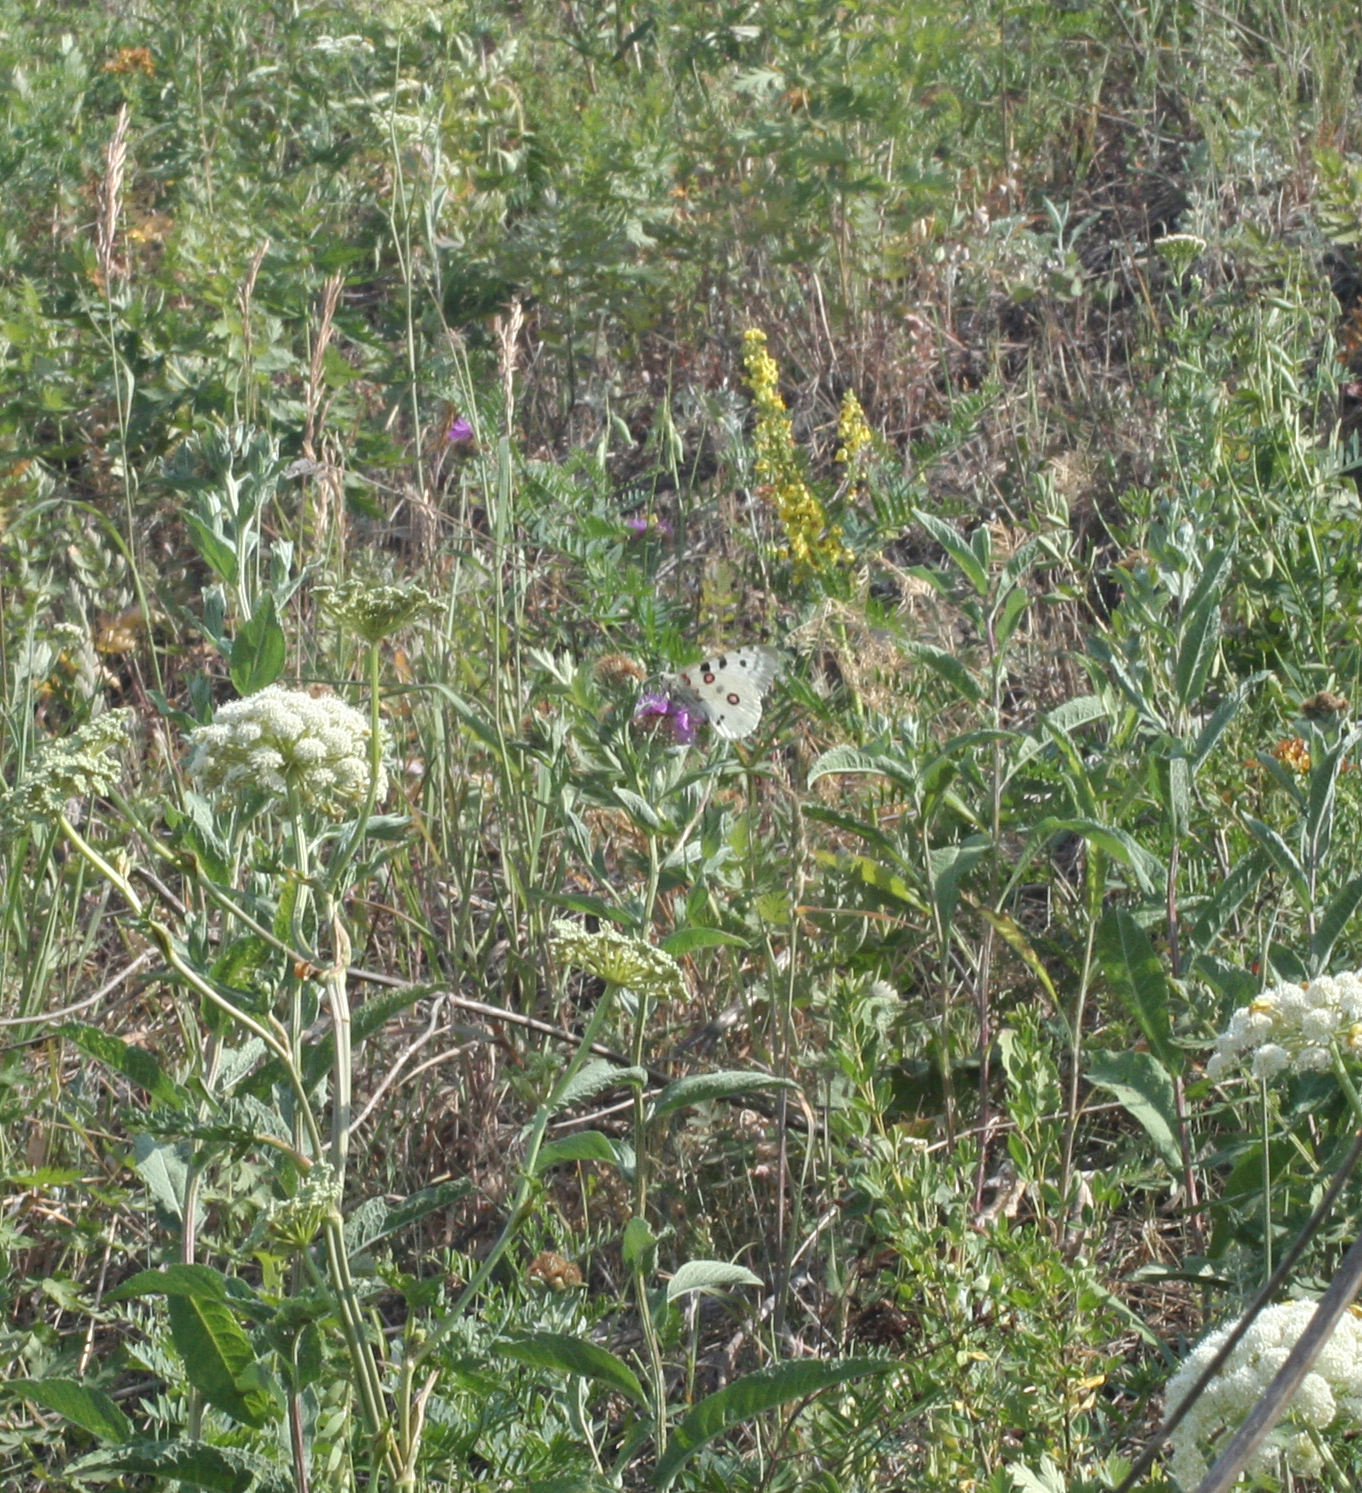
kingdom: Animalia
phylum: Arthropoda
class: Insecta
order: Lepidoptera
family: Papilionidae
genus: Parnassius
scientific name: Parnassius apollo
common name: Apollo
